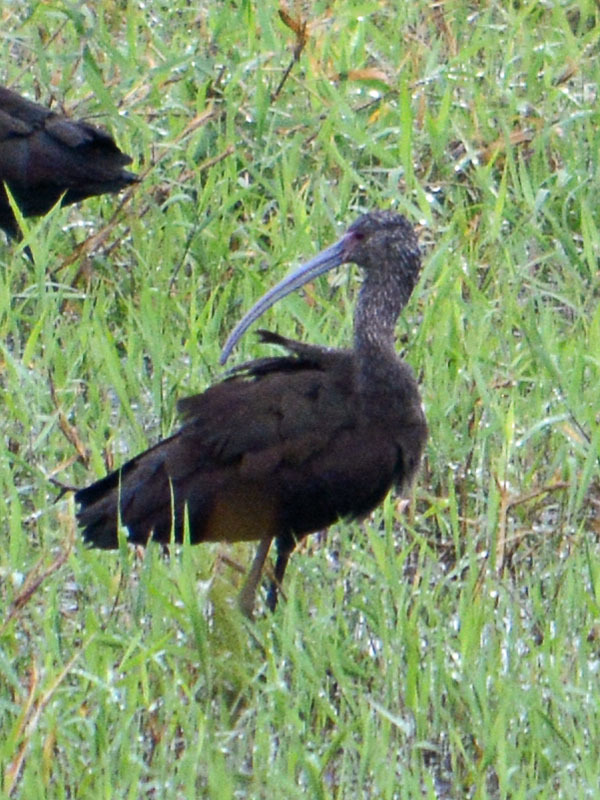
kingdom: Animalia
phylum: Chordata
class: Aves
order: Pelecaniformes
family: Threskiornithidae
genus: Plegadis
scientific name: Plegadis chihi
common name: White-faced ibis
